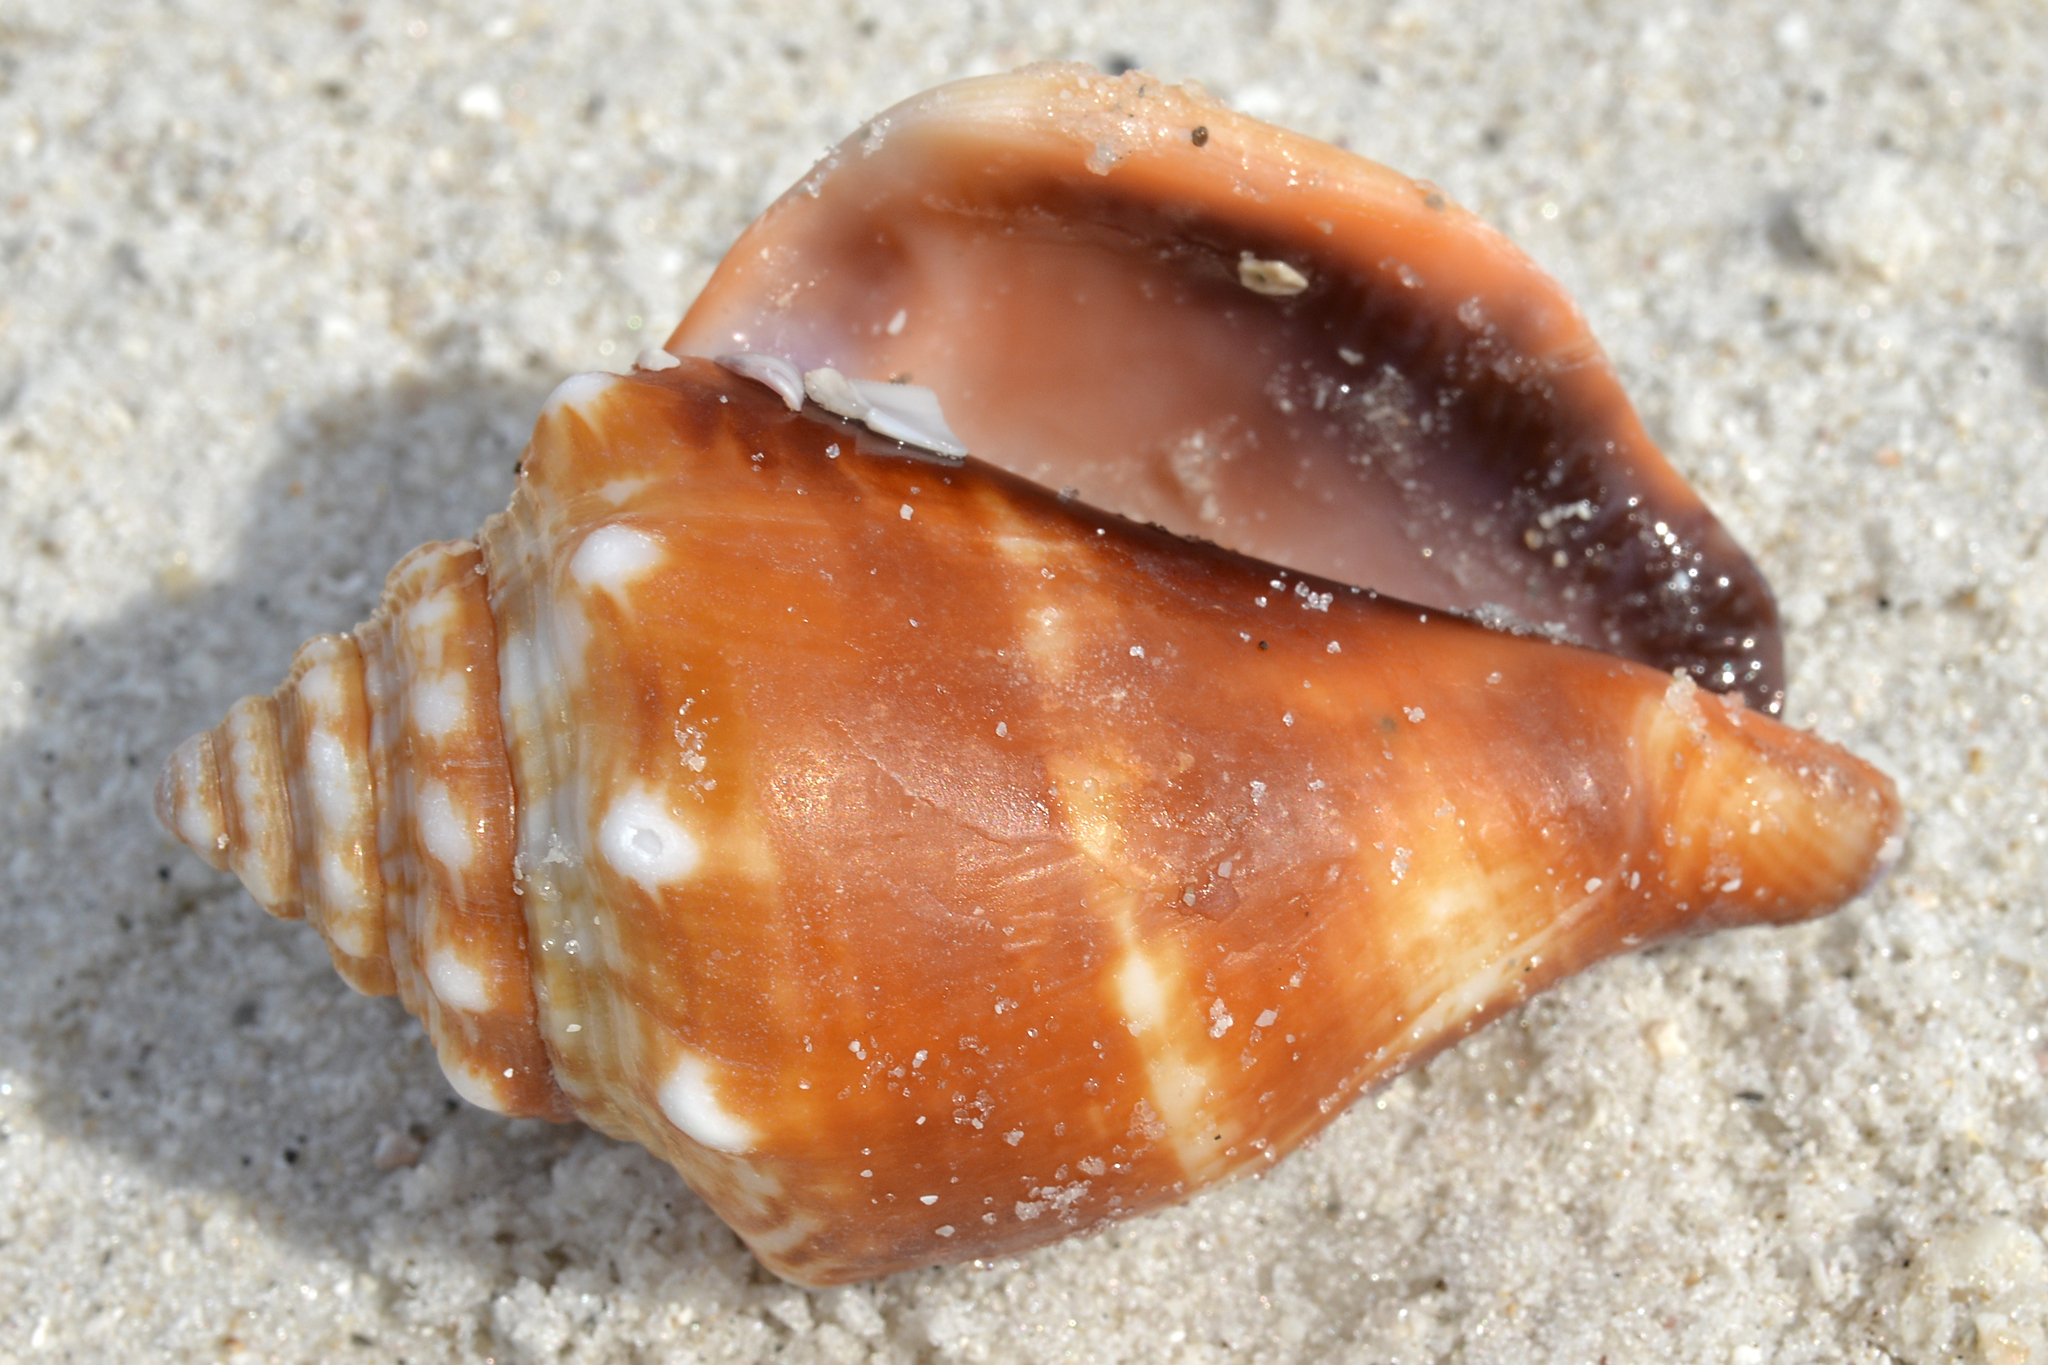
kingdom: Animalia
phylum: Mollusca
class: Gastropoda
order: Littorinimorpha
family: Strombidae
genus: Strombus
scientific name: Strombus alatus
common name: Florida fighting conch
